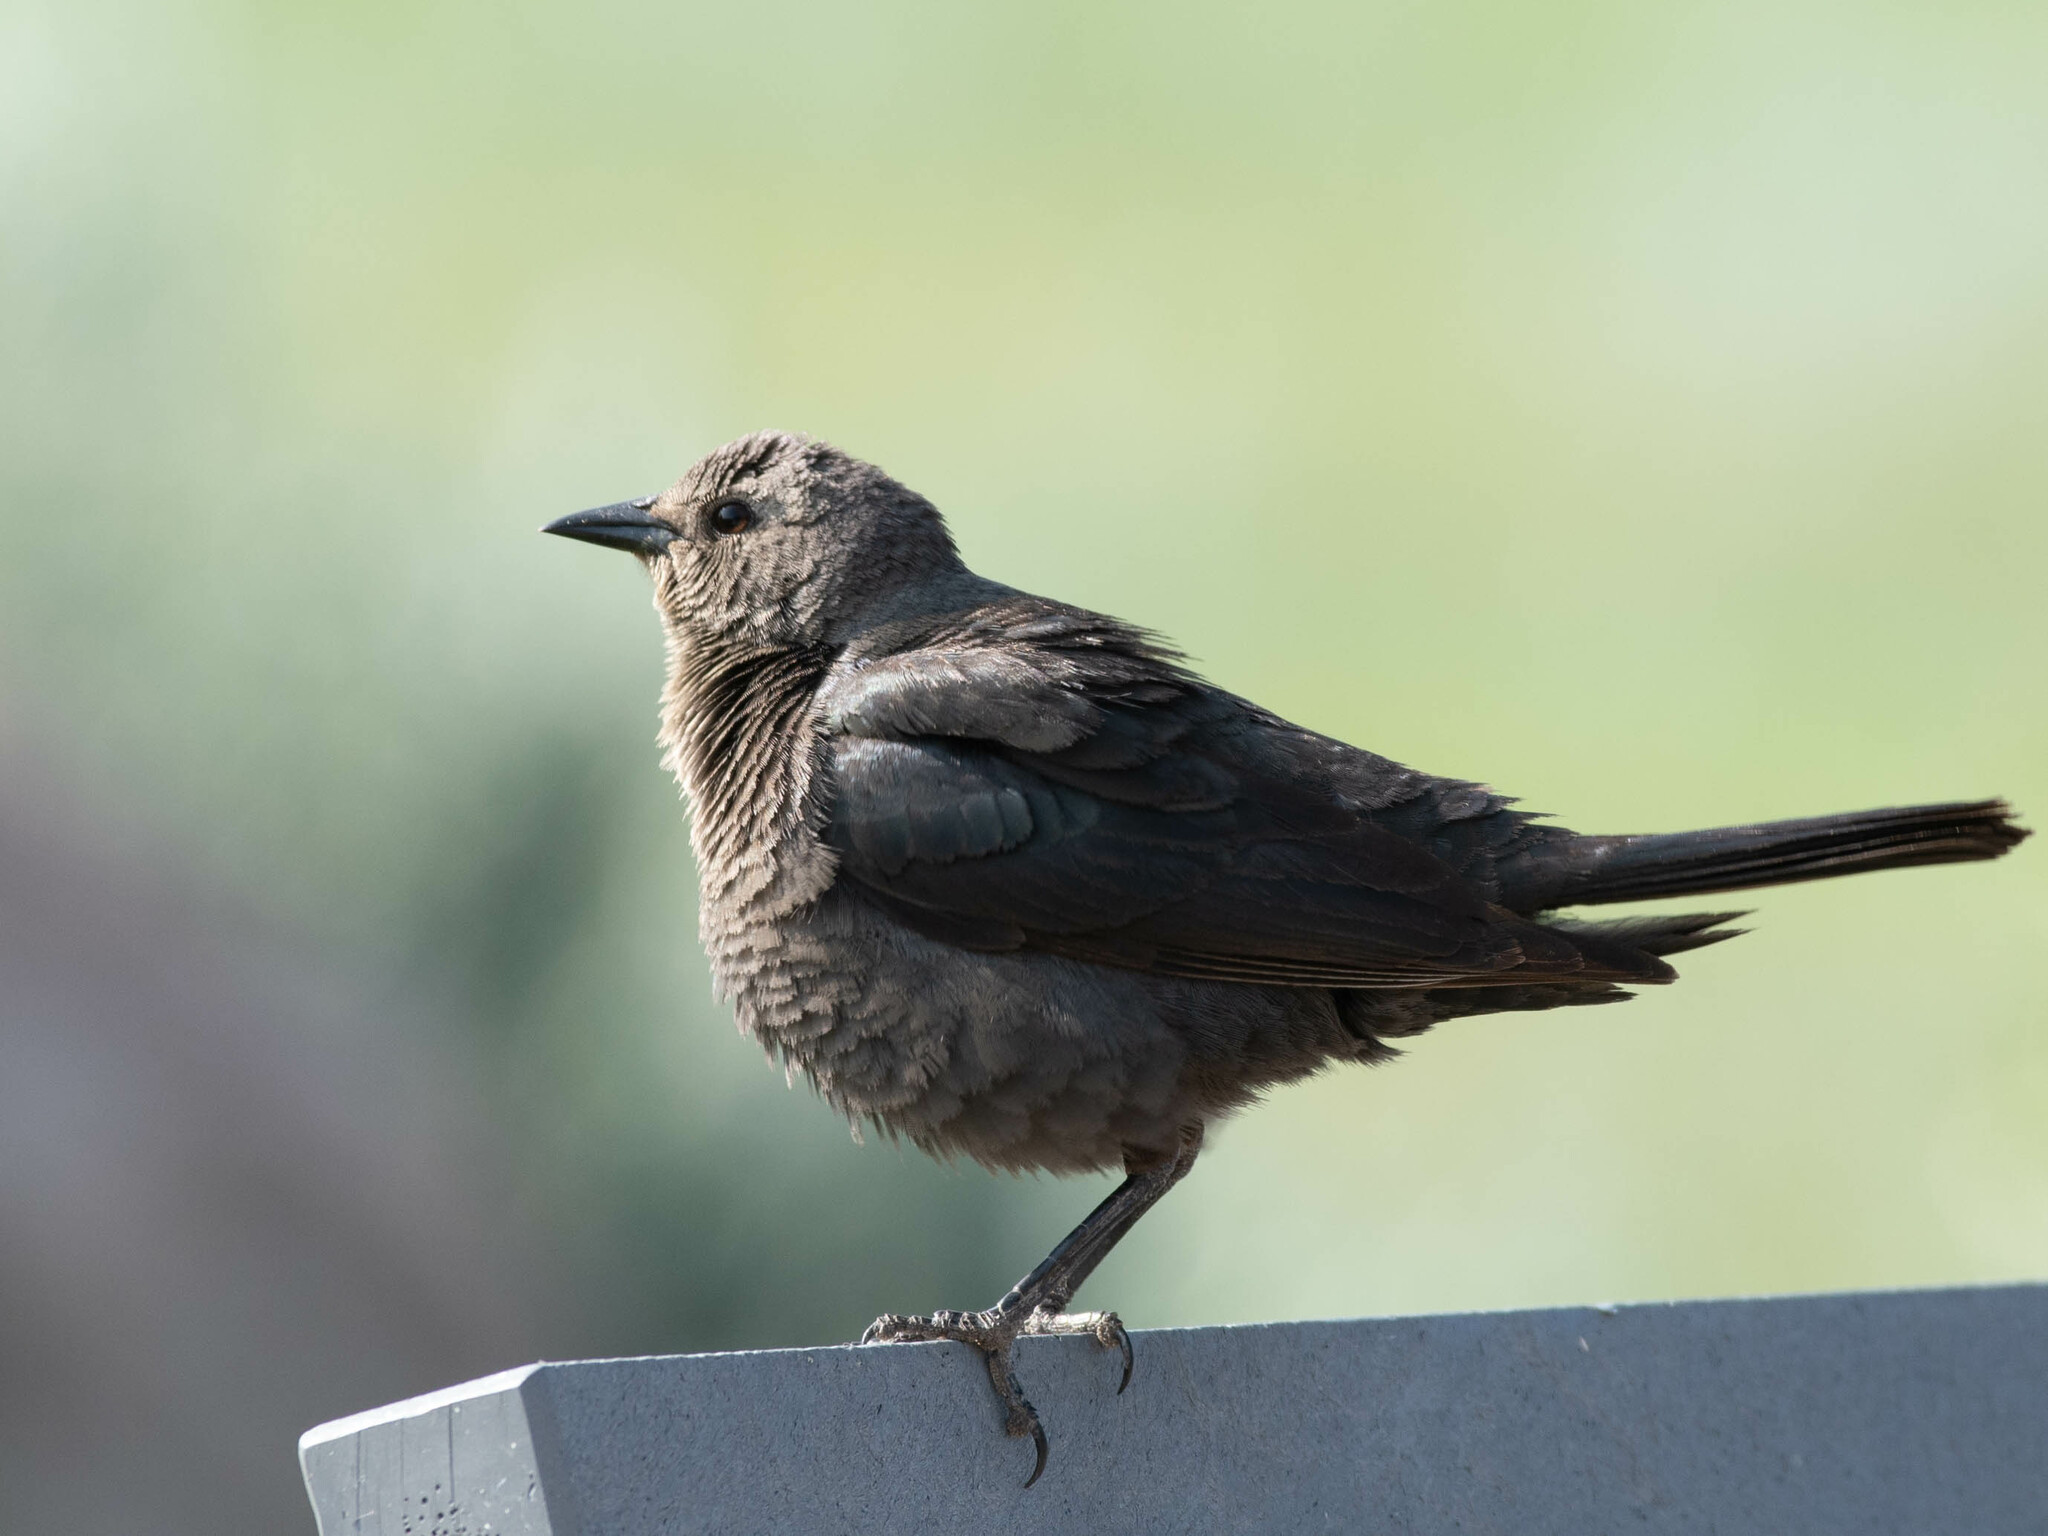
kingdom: Animalia
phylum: Chordata
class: Aves
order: Passeriformes
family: Icteridae
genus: Euphagus
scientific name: Euphagus cyanocephalus
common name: Brewer's blackbird
